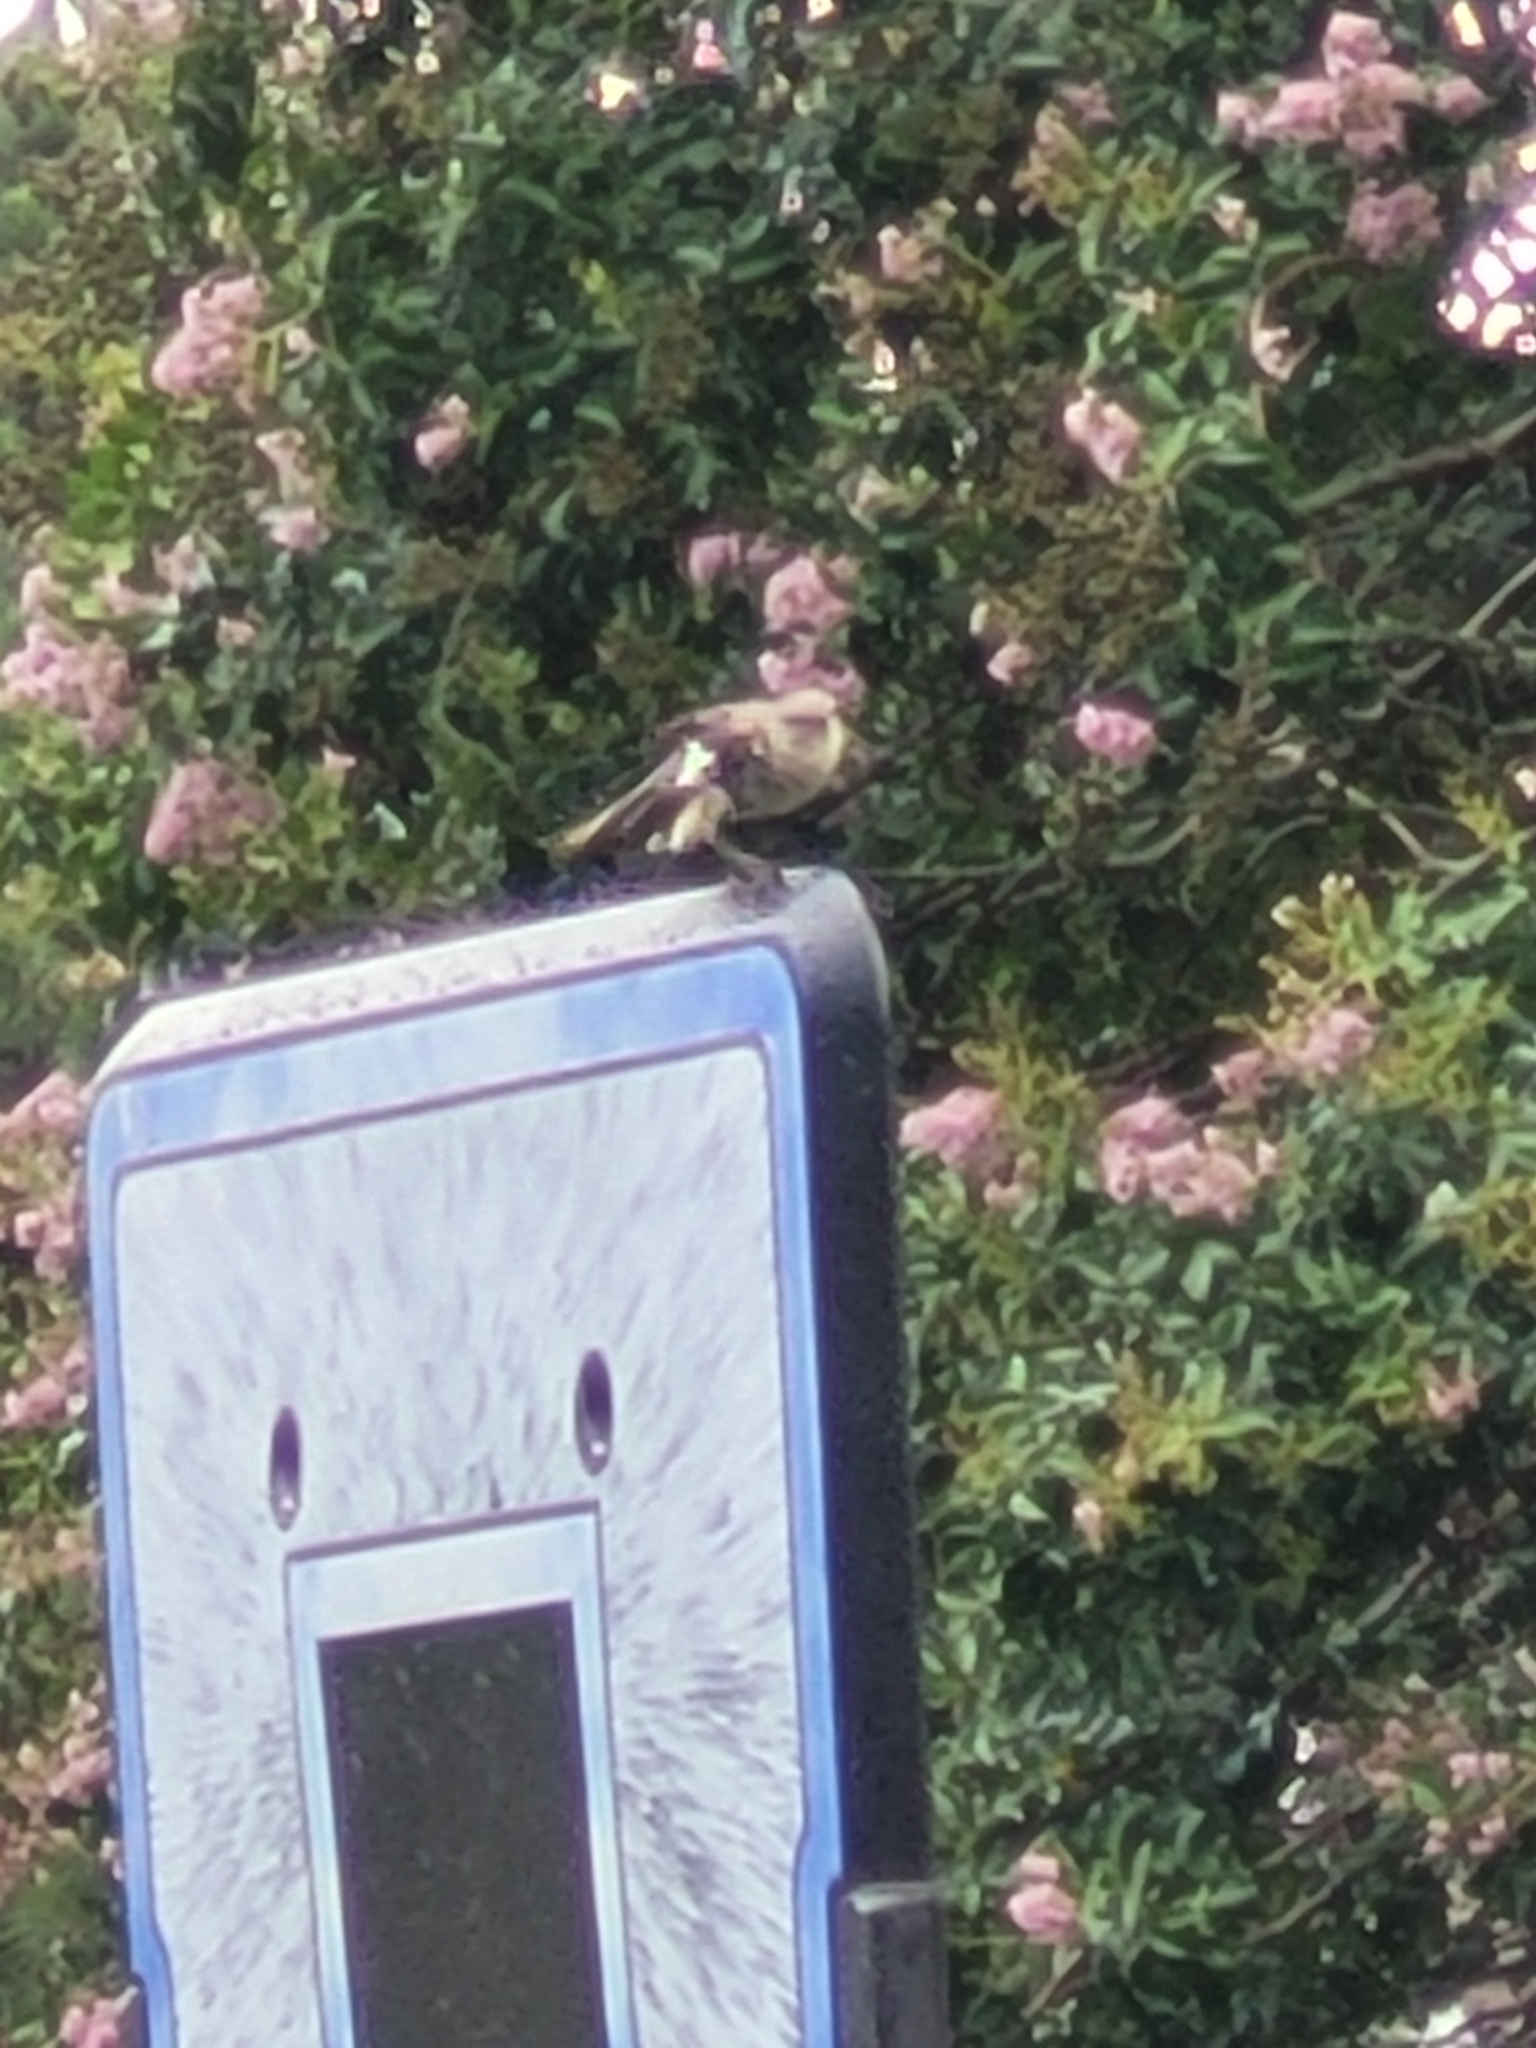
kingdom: Animalia
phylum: Chordata
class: Aves
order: Passeriformes
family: Mimidae
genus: Mimus
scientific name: Mimus polyglottos
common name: Northern mockingbird
